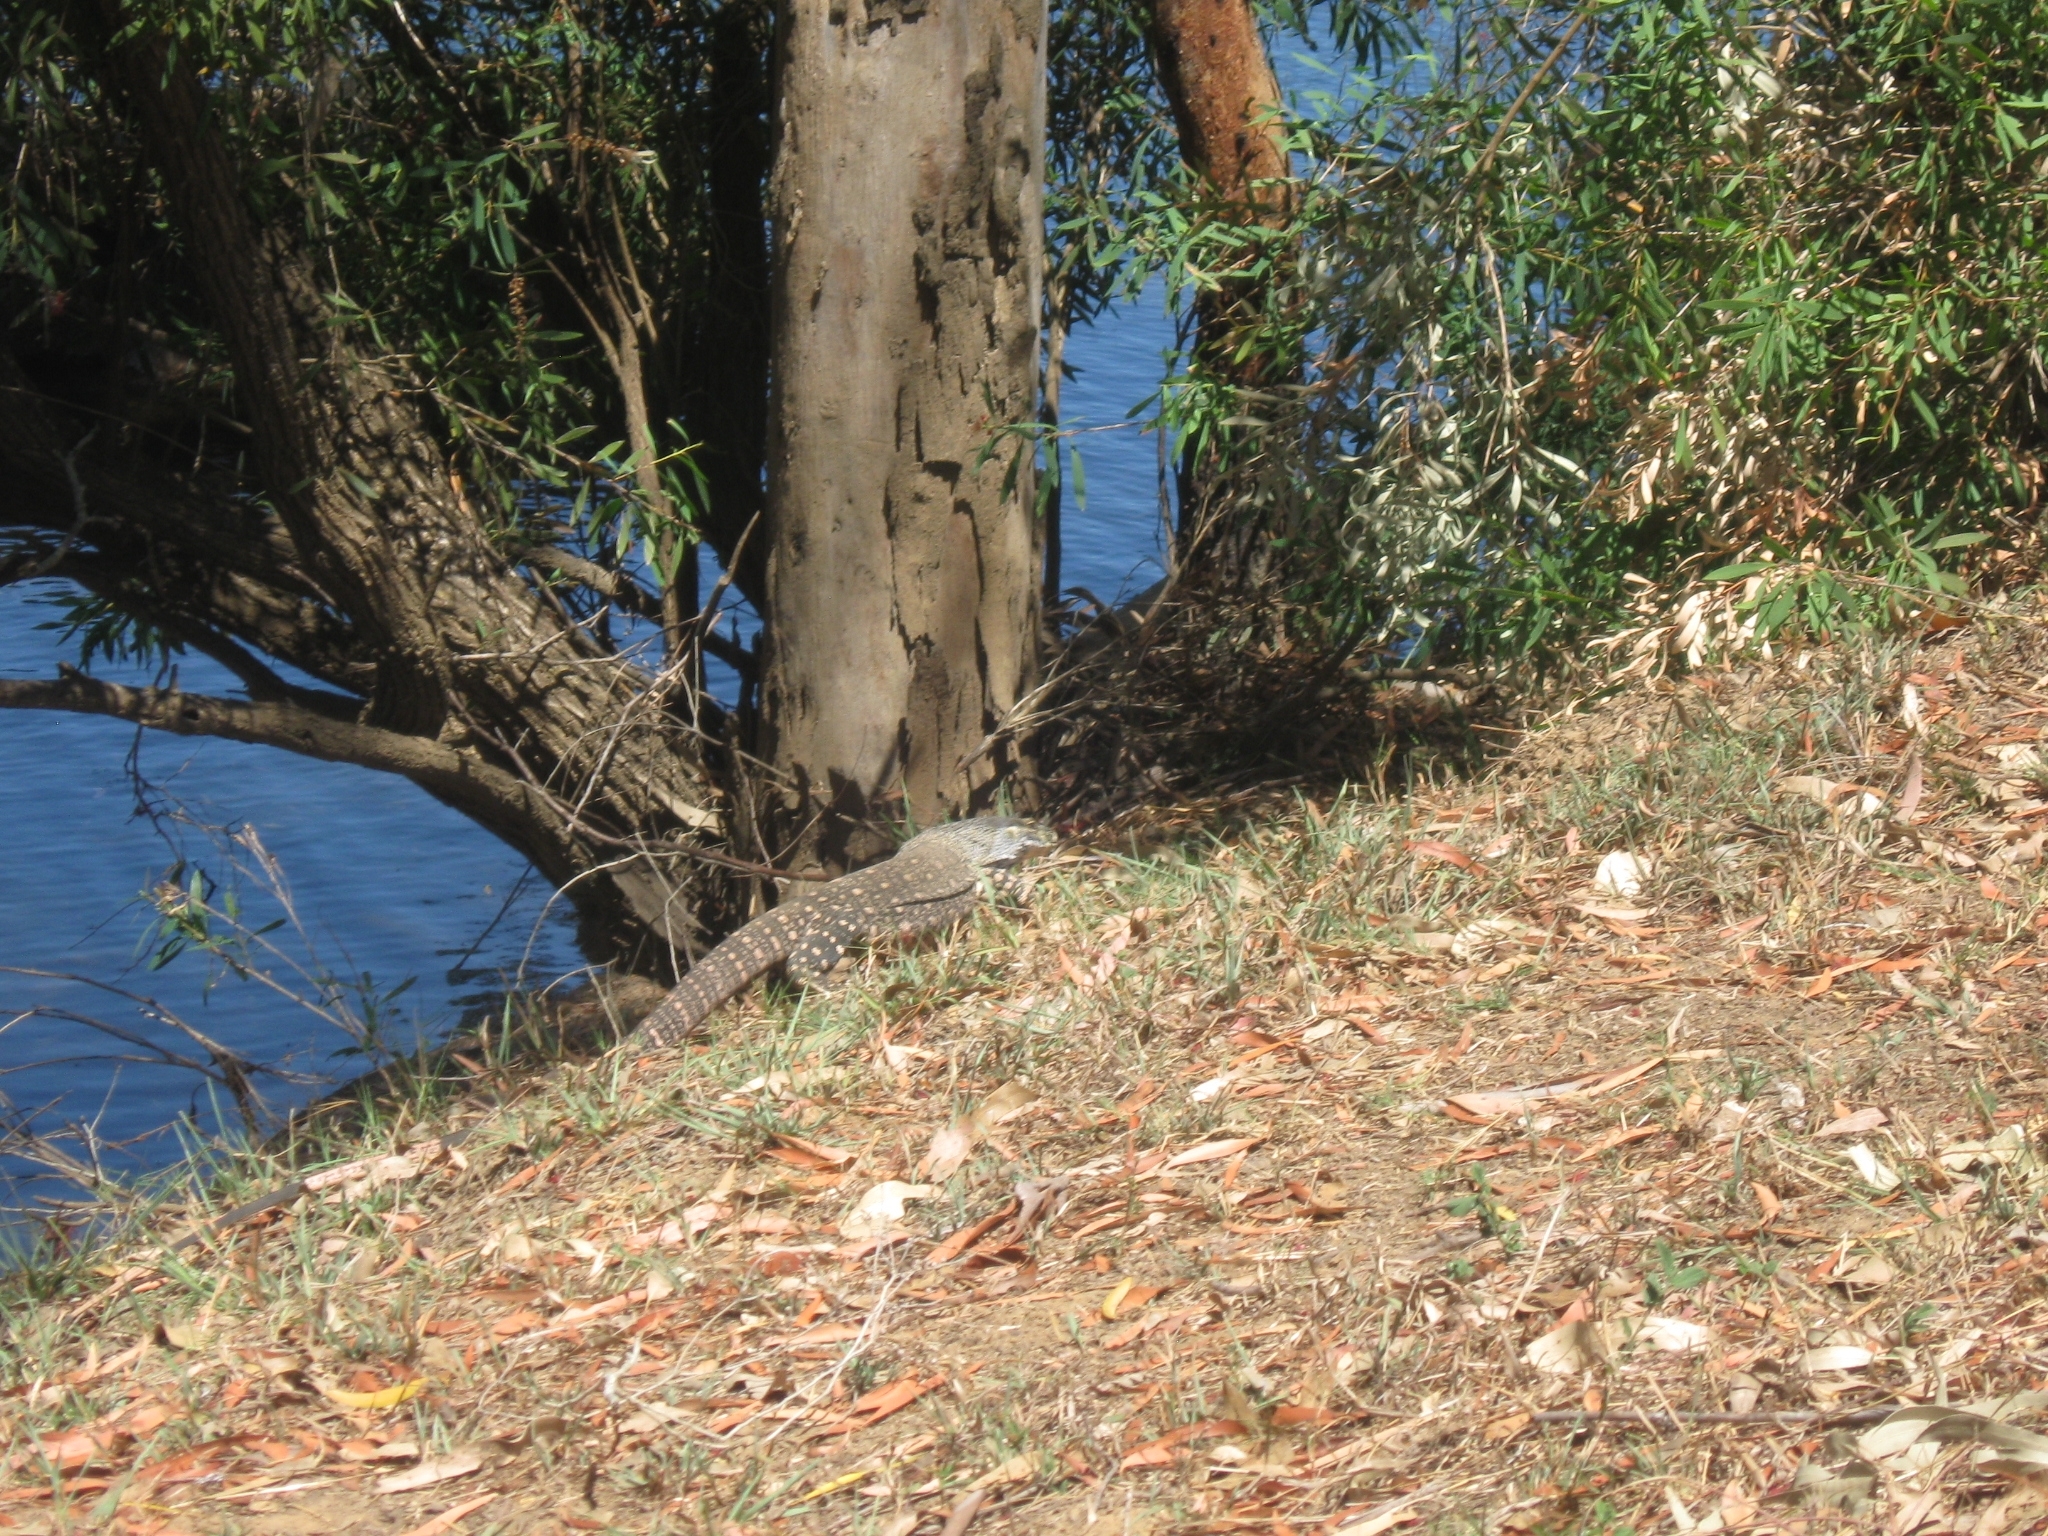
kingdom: Animalia
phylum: Chordata
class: Squamata
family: Varanidae
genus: Varanus
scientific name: Varanus varius
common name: Lace monitor
